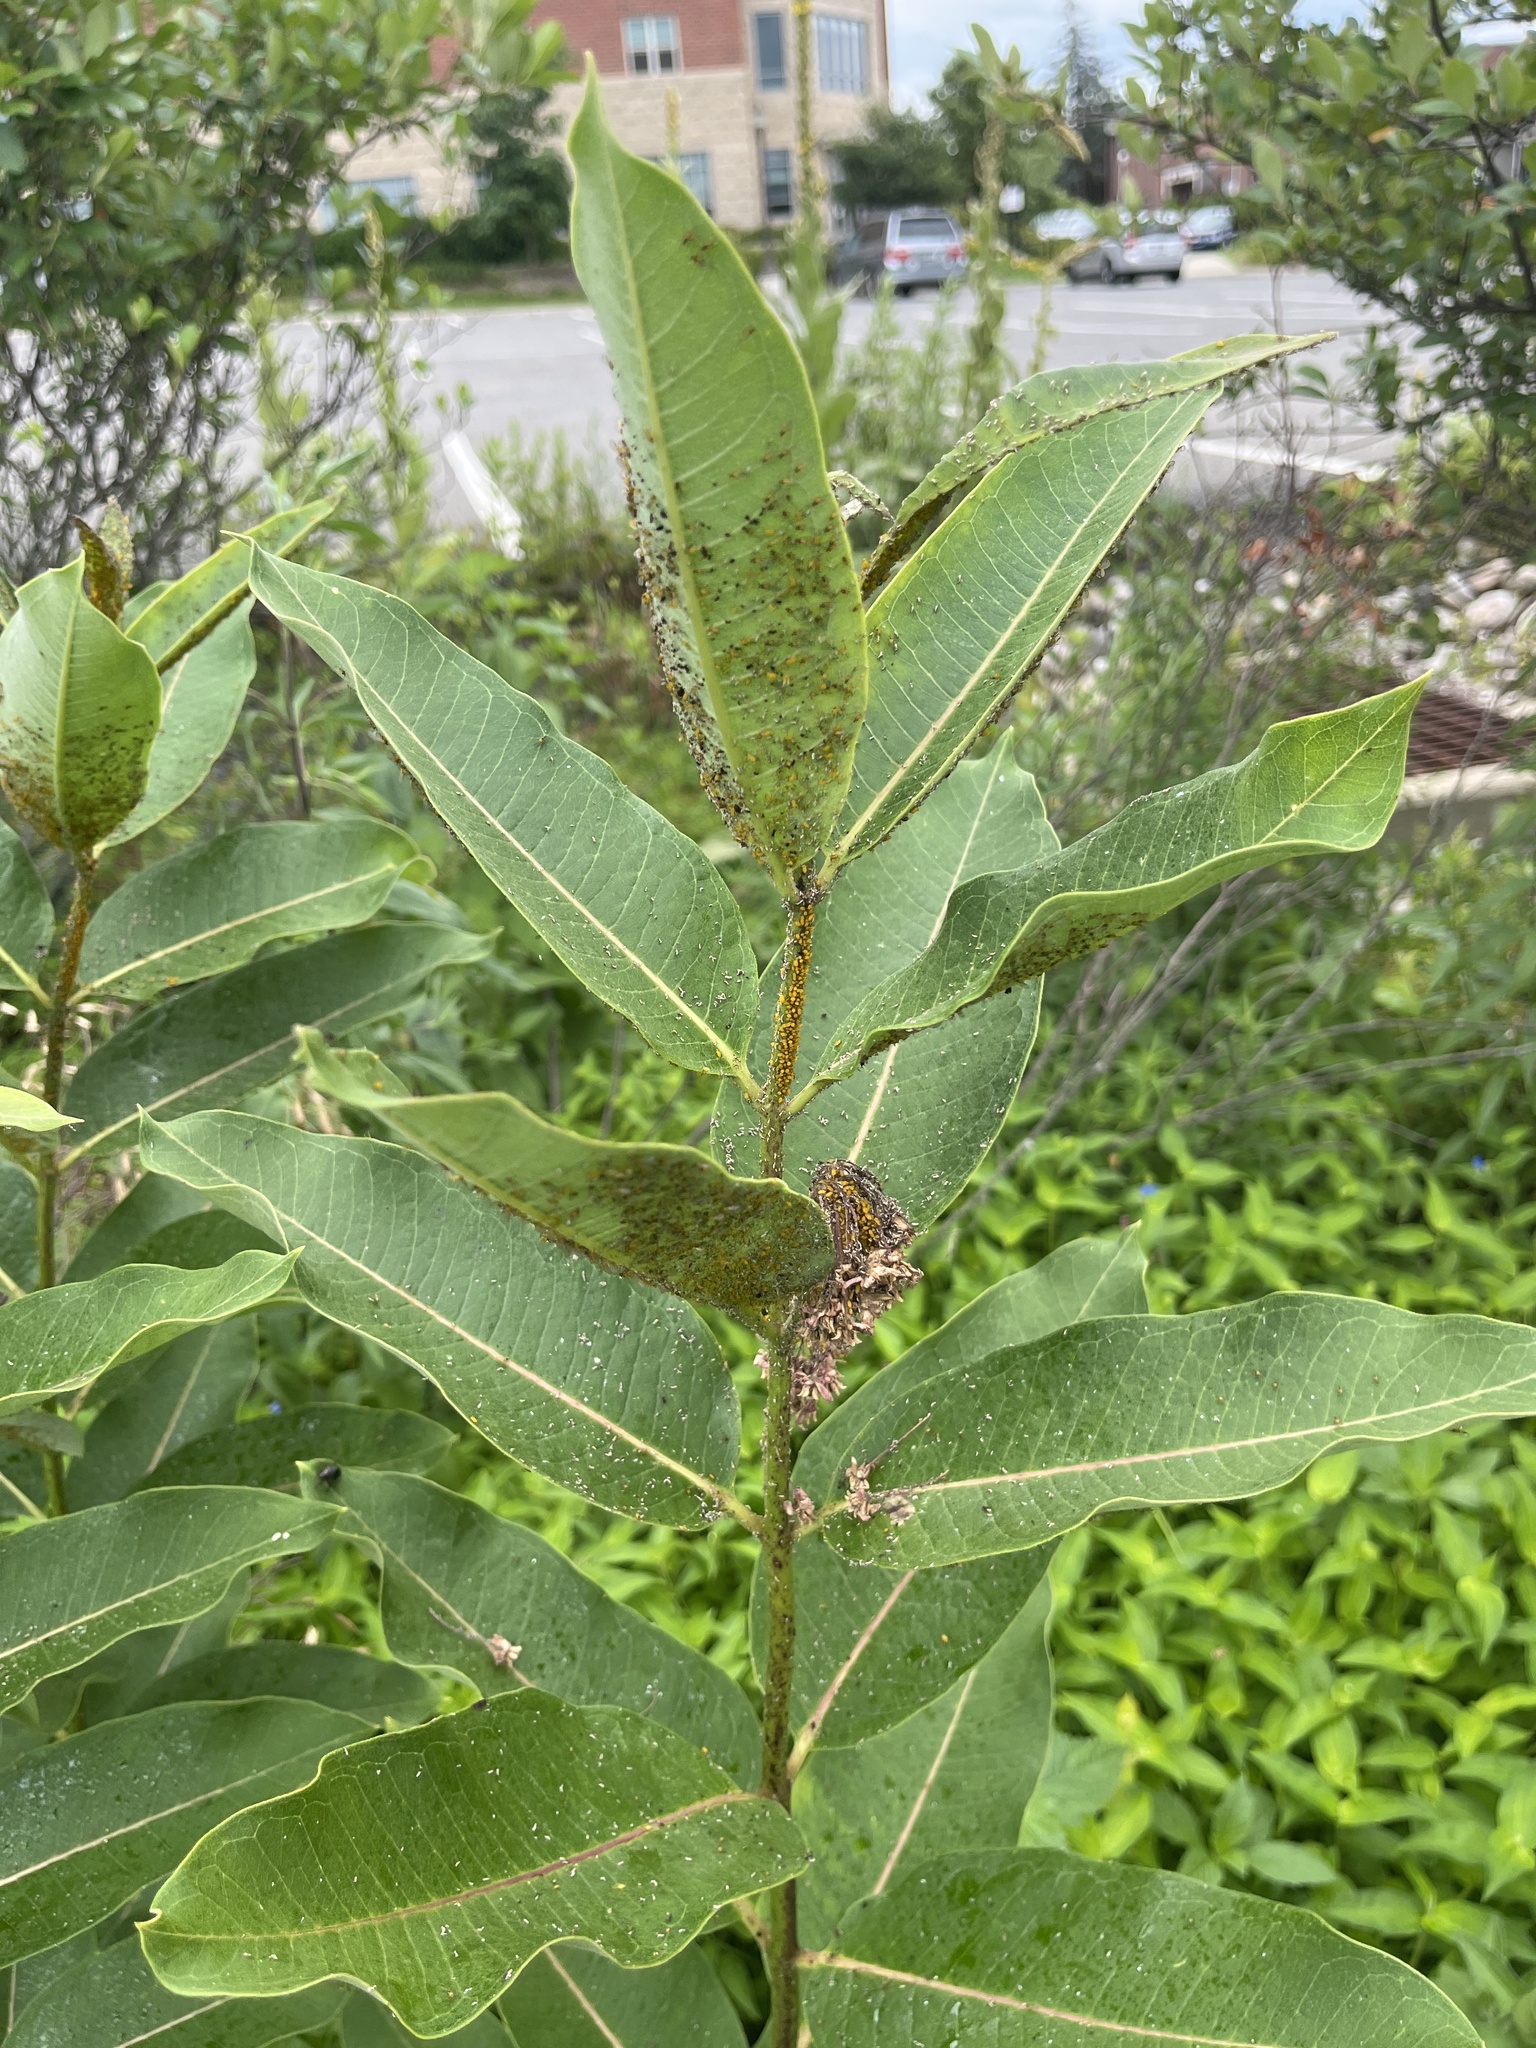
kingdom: Animalia
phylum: Arthropoda
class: Insecta
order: Hemiptera
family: Aphididae
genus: Aphis
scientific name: Aphis nerii
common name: Oleander aphid
